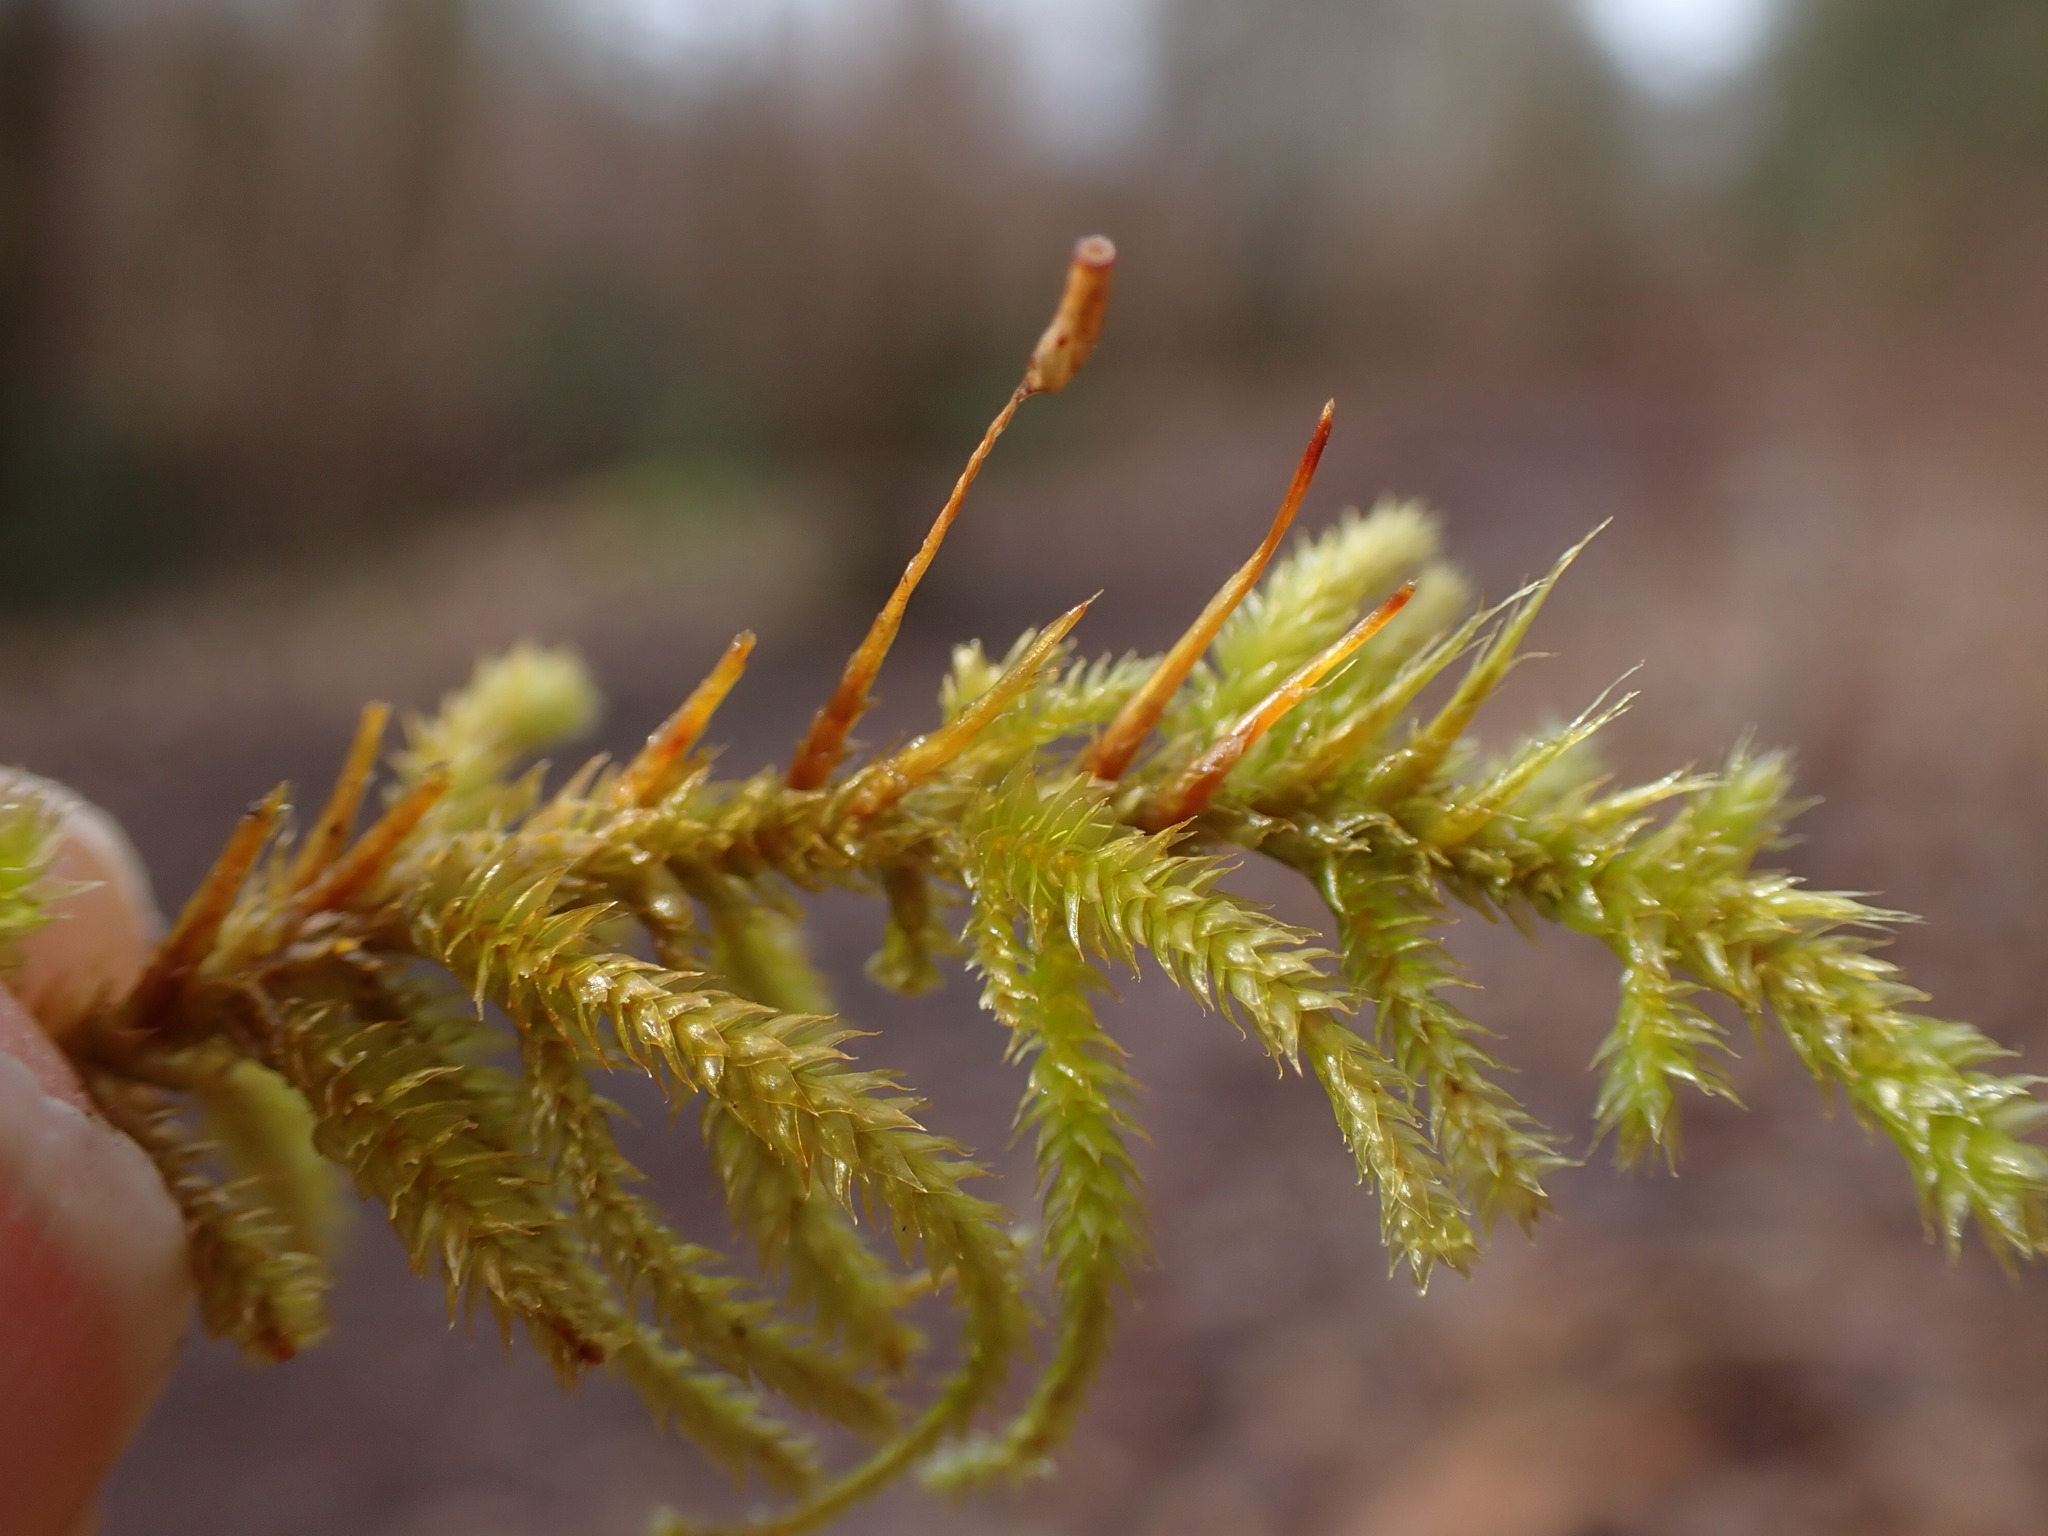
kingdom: Plantae
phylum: Bryophyta
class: Bryopsida
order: Hypnales
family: Antitrichiaceae
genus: Antitrichia
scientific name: Antitrichia californica
